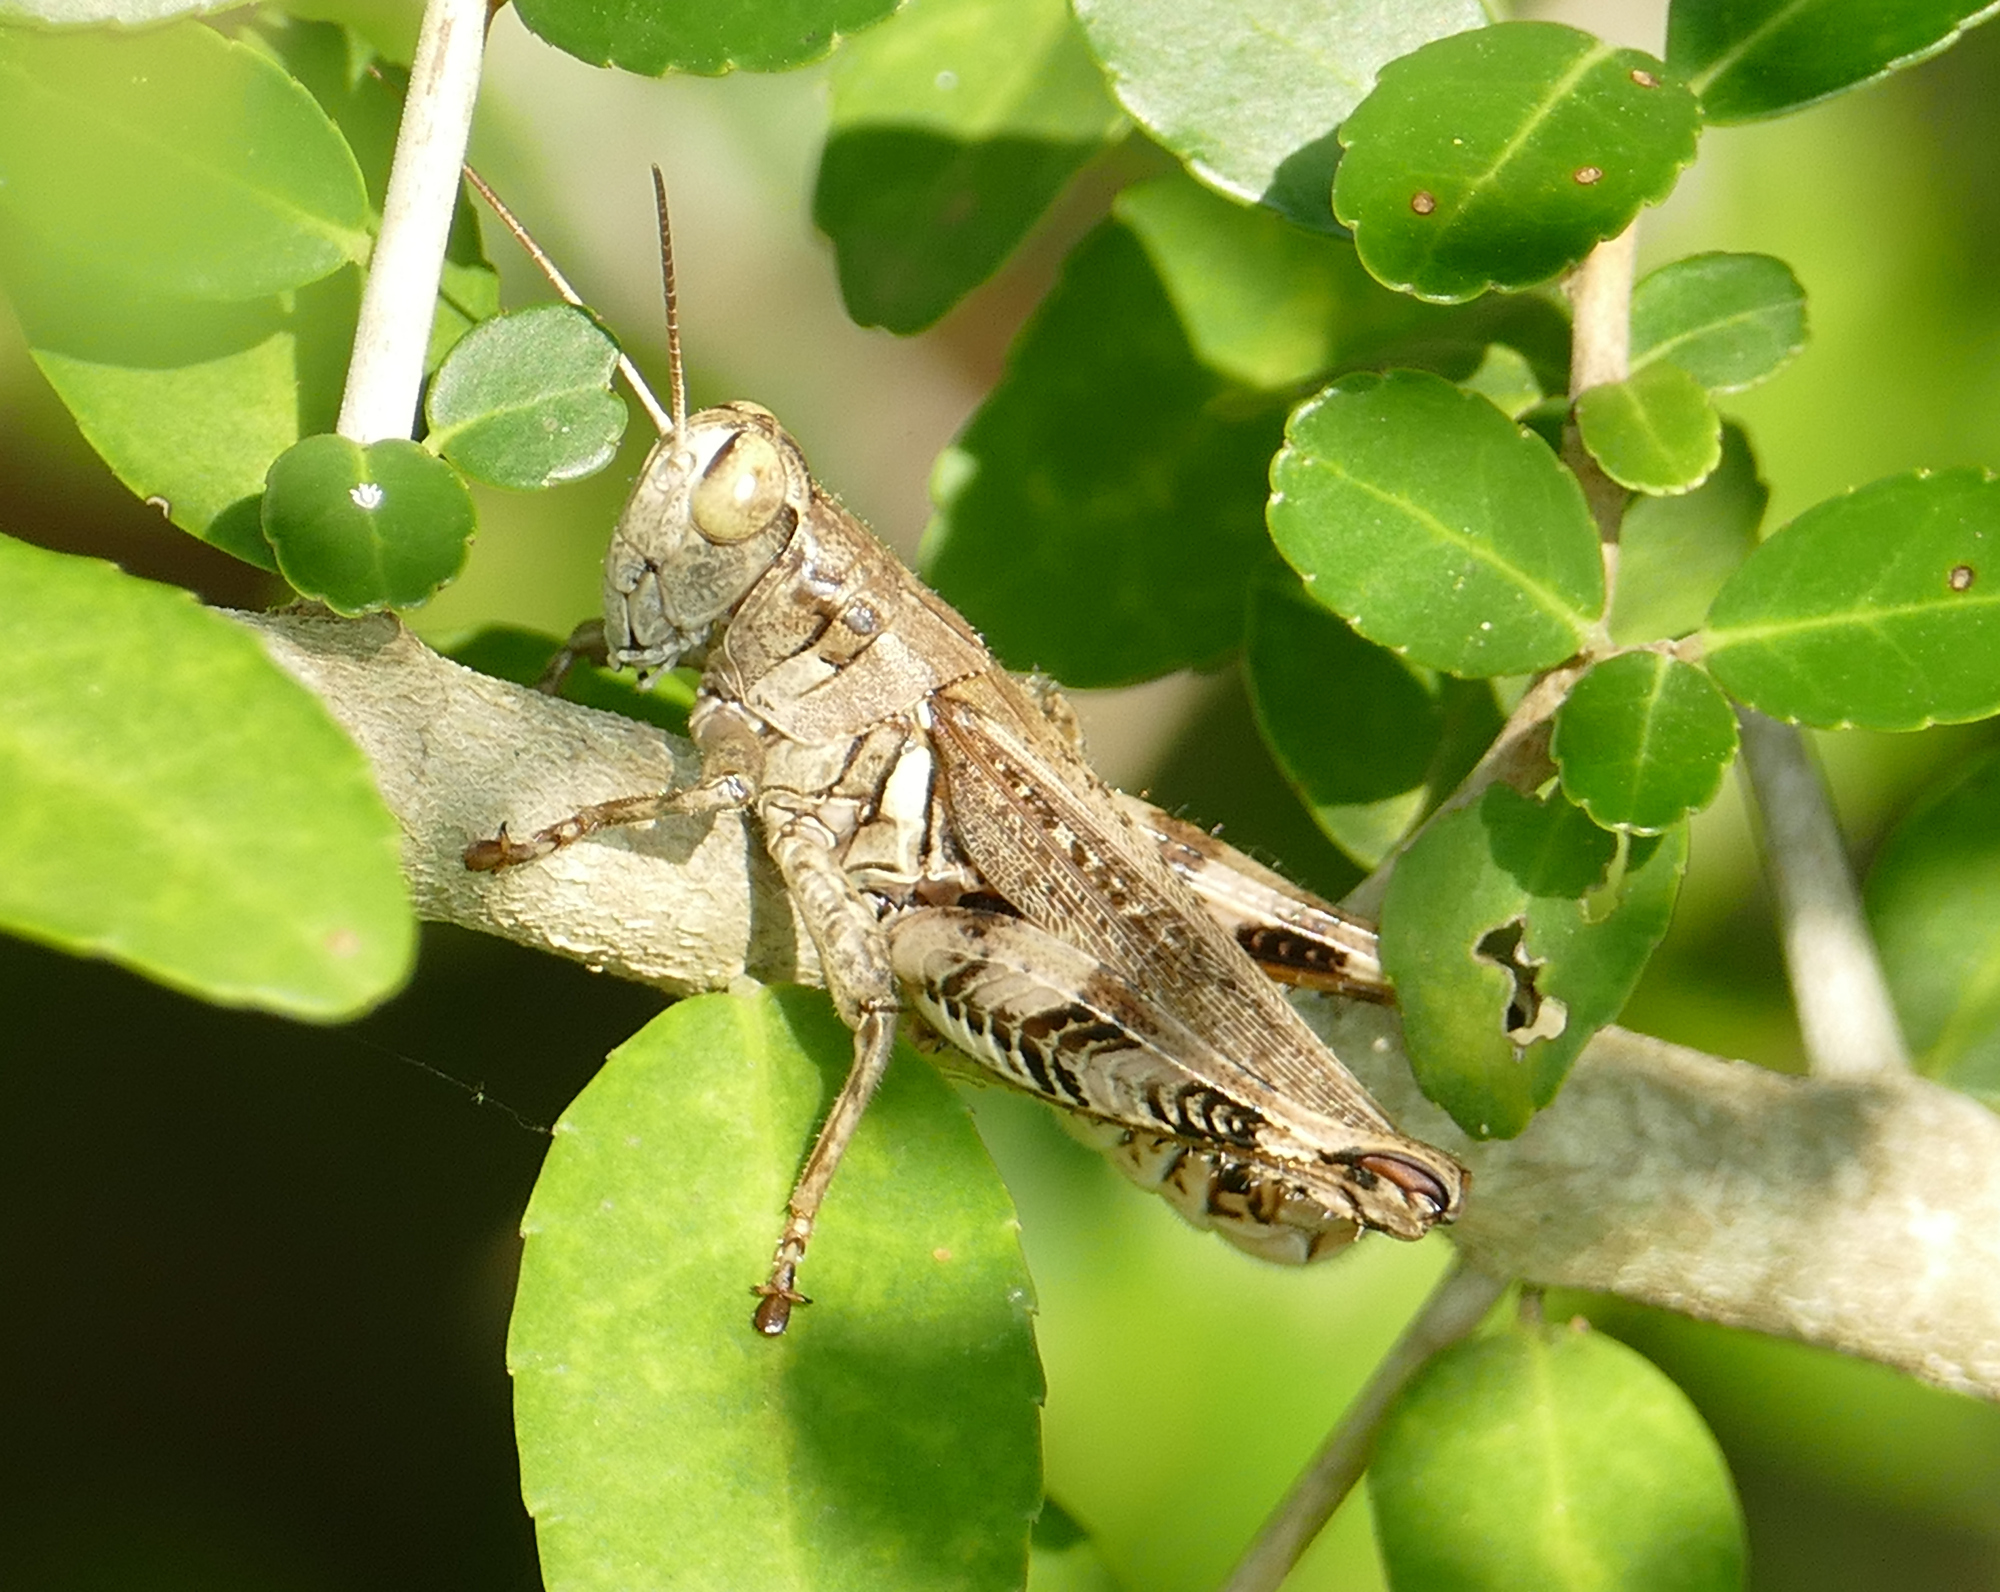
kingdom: Animalia
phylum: Arthropoda
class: Insecta
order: Orthoptera
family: Acrididae
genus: Melanoplus
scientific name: Melanoplus ponderosus
